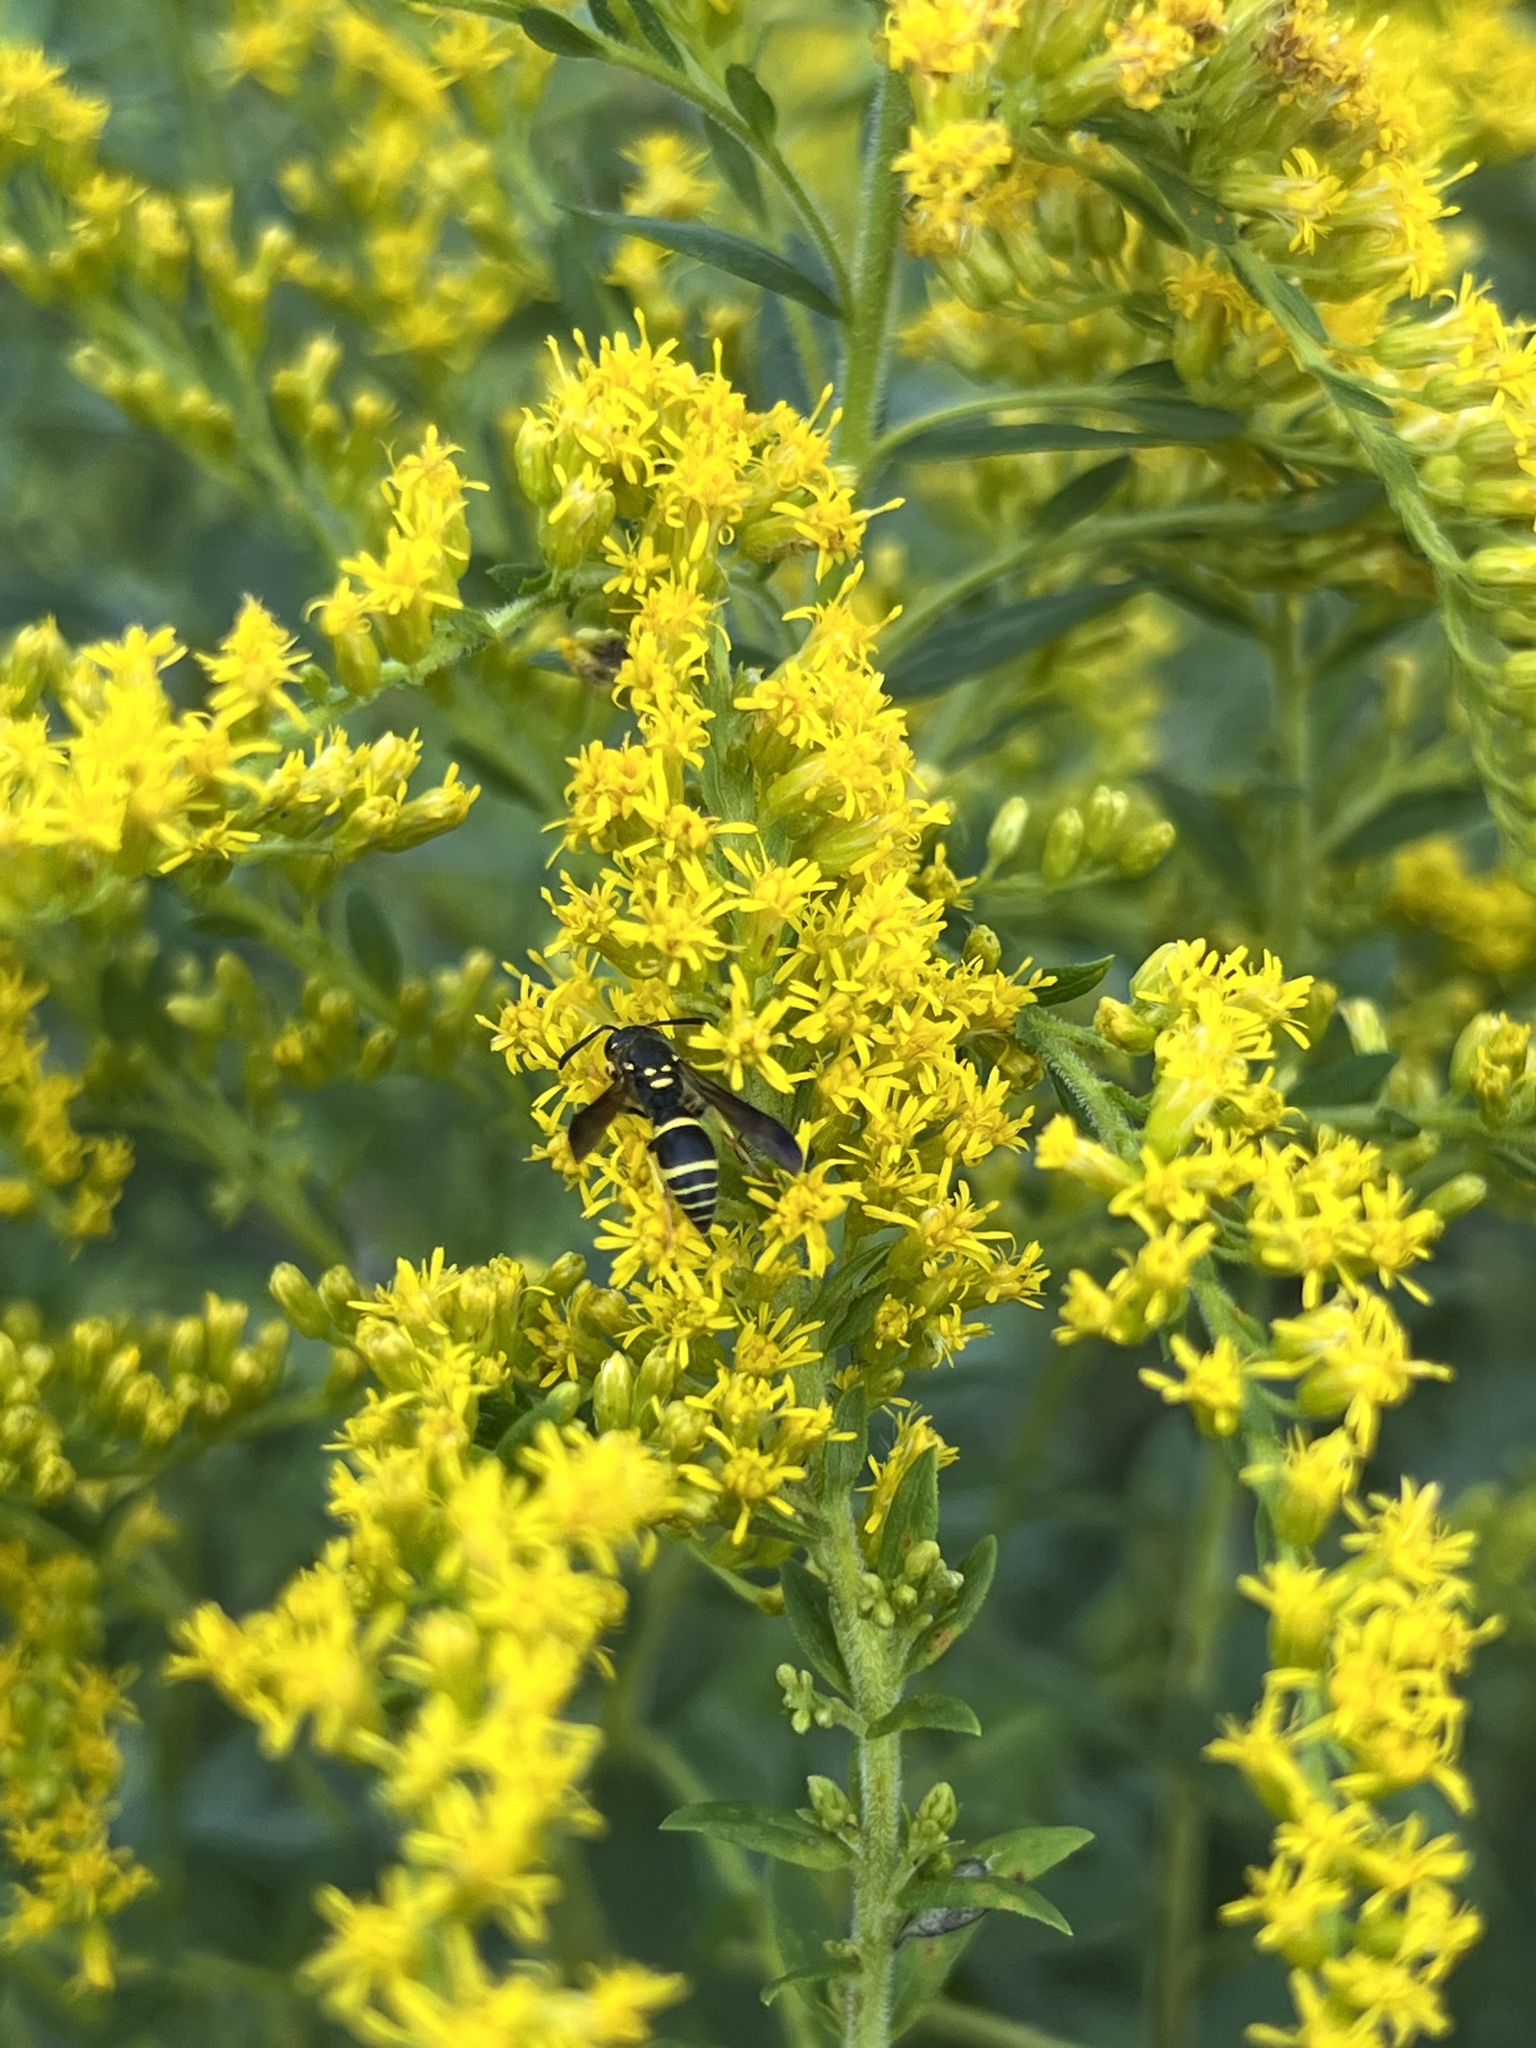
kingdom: Animalia
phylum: Arthropoda
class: Insecta
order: Hymenoptera
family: Vespidae
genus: Ancistrocerus
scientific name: Ancistrocerus adiabatus
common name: Bramble mason wasp
